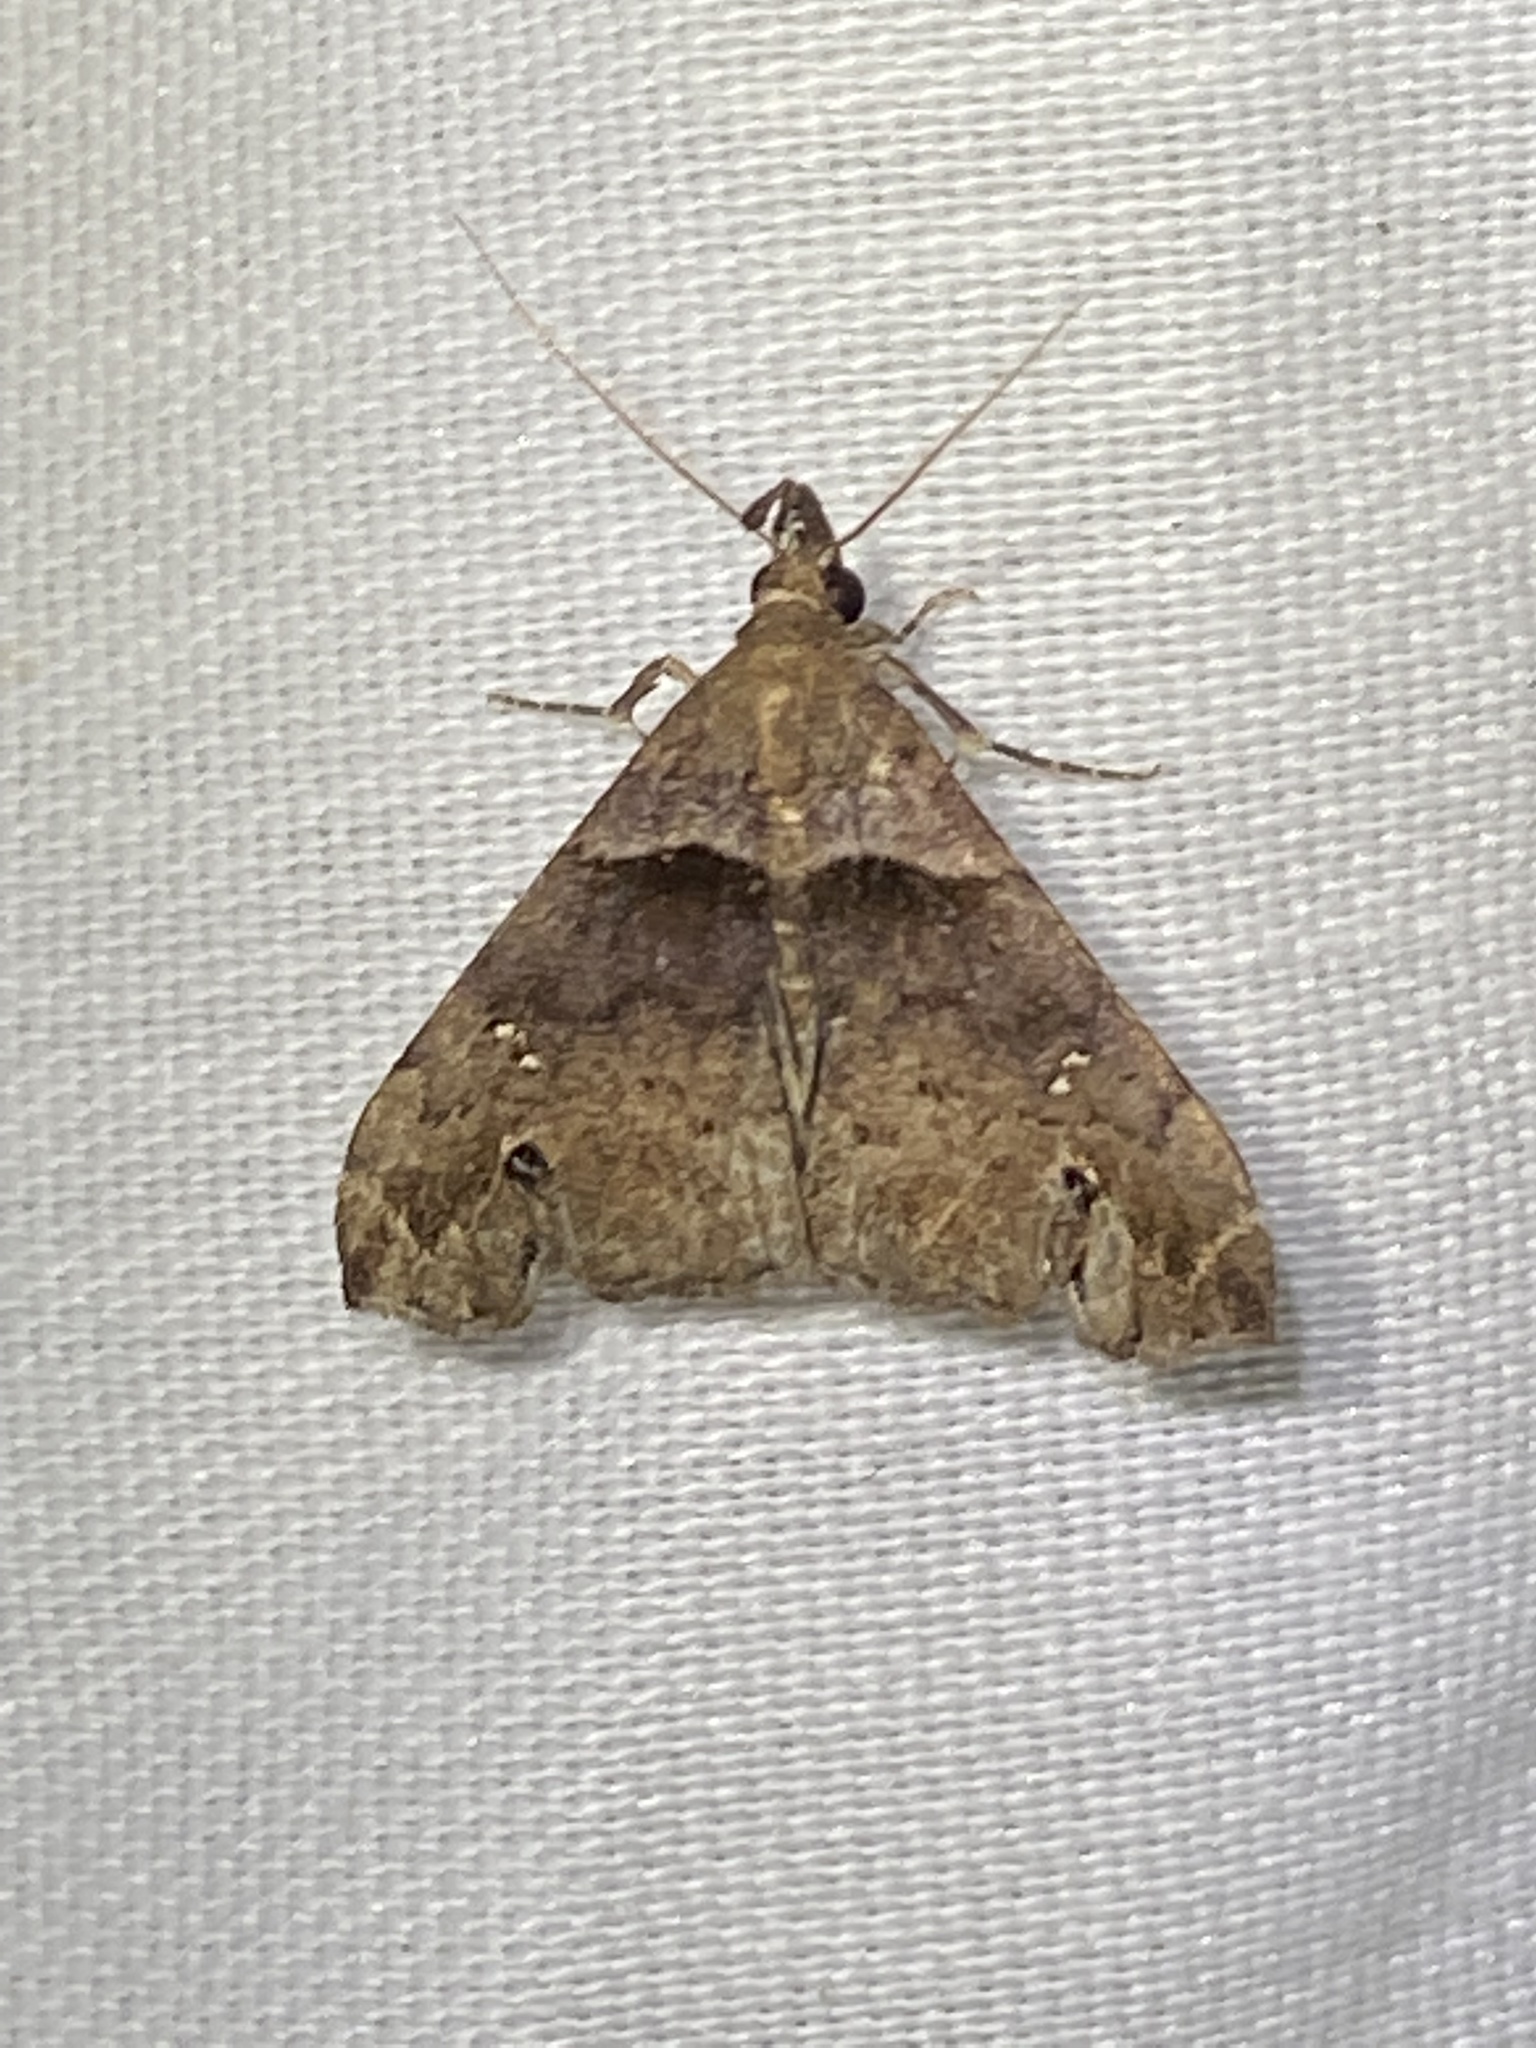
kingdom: Animalia
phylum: Arthropoda
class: Insecta
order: Lepidoptera
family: Erebidae
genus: Lascoria
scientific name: Lascoria ambigualis
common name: Ambiguous moth
